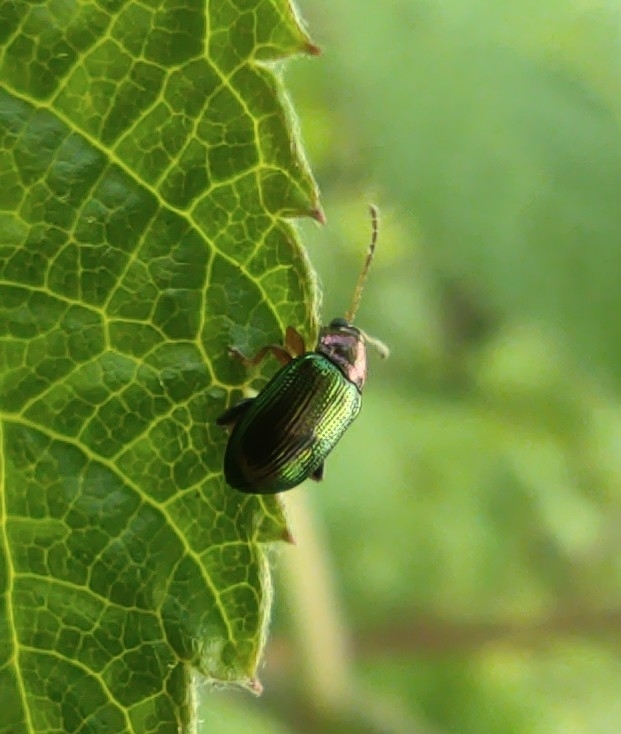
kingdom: Animalia
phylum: Arthropoda
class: Insecta
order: Coleoptera
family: Chrysomelidae
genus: Crepidodera
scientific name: Crepidodera aurata
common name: Willow flea beetle
